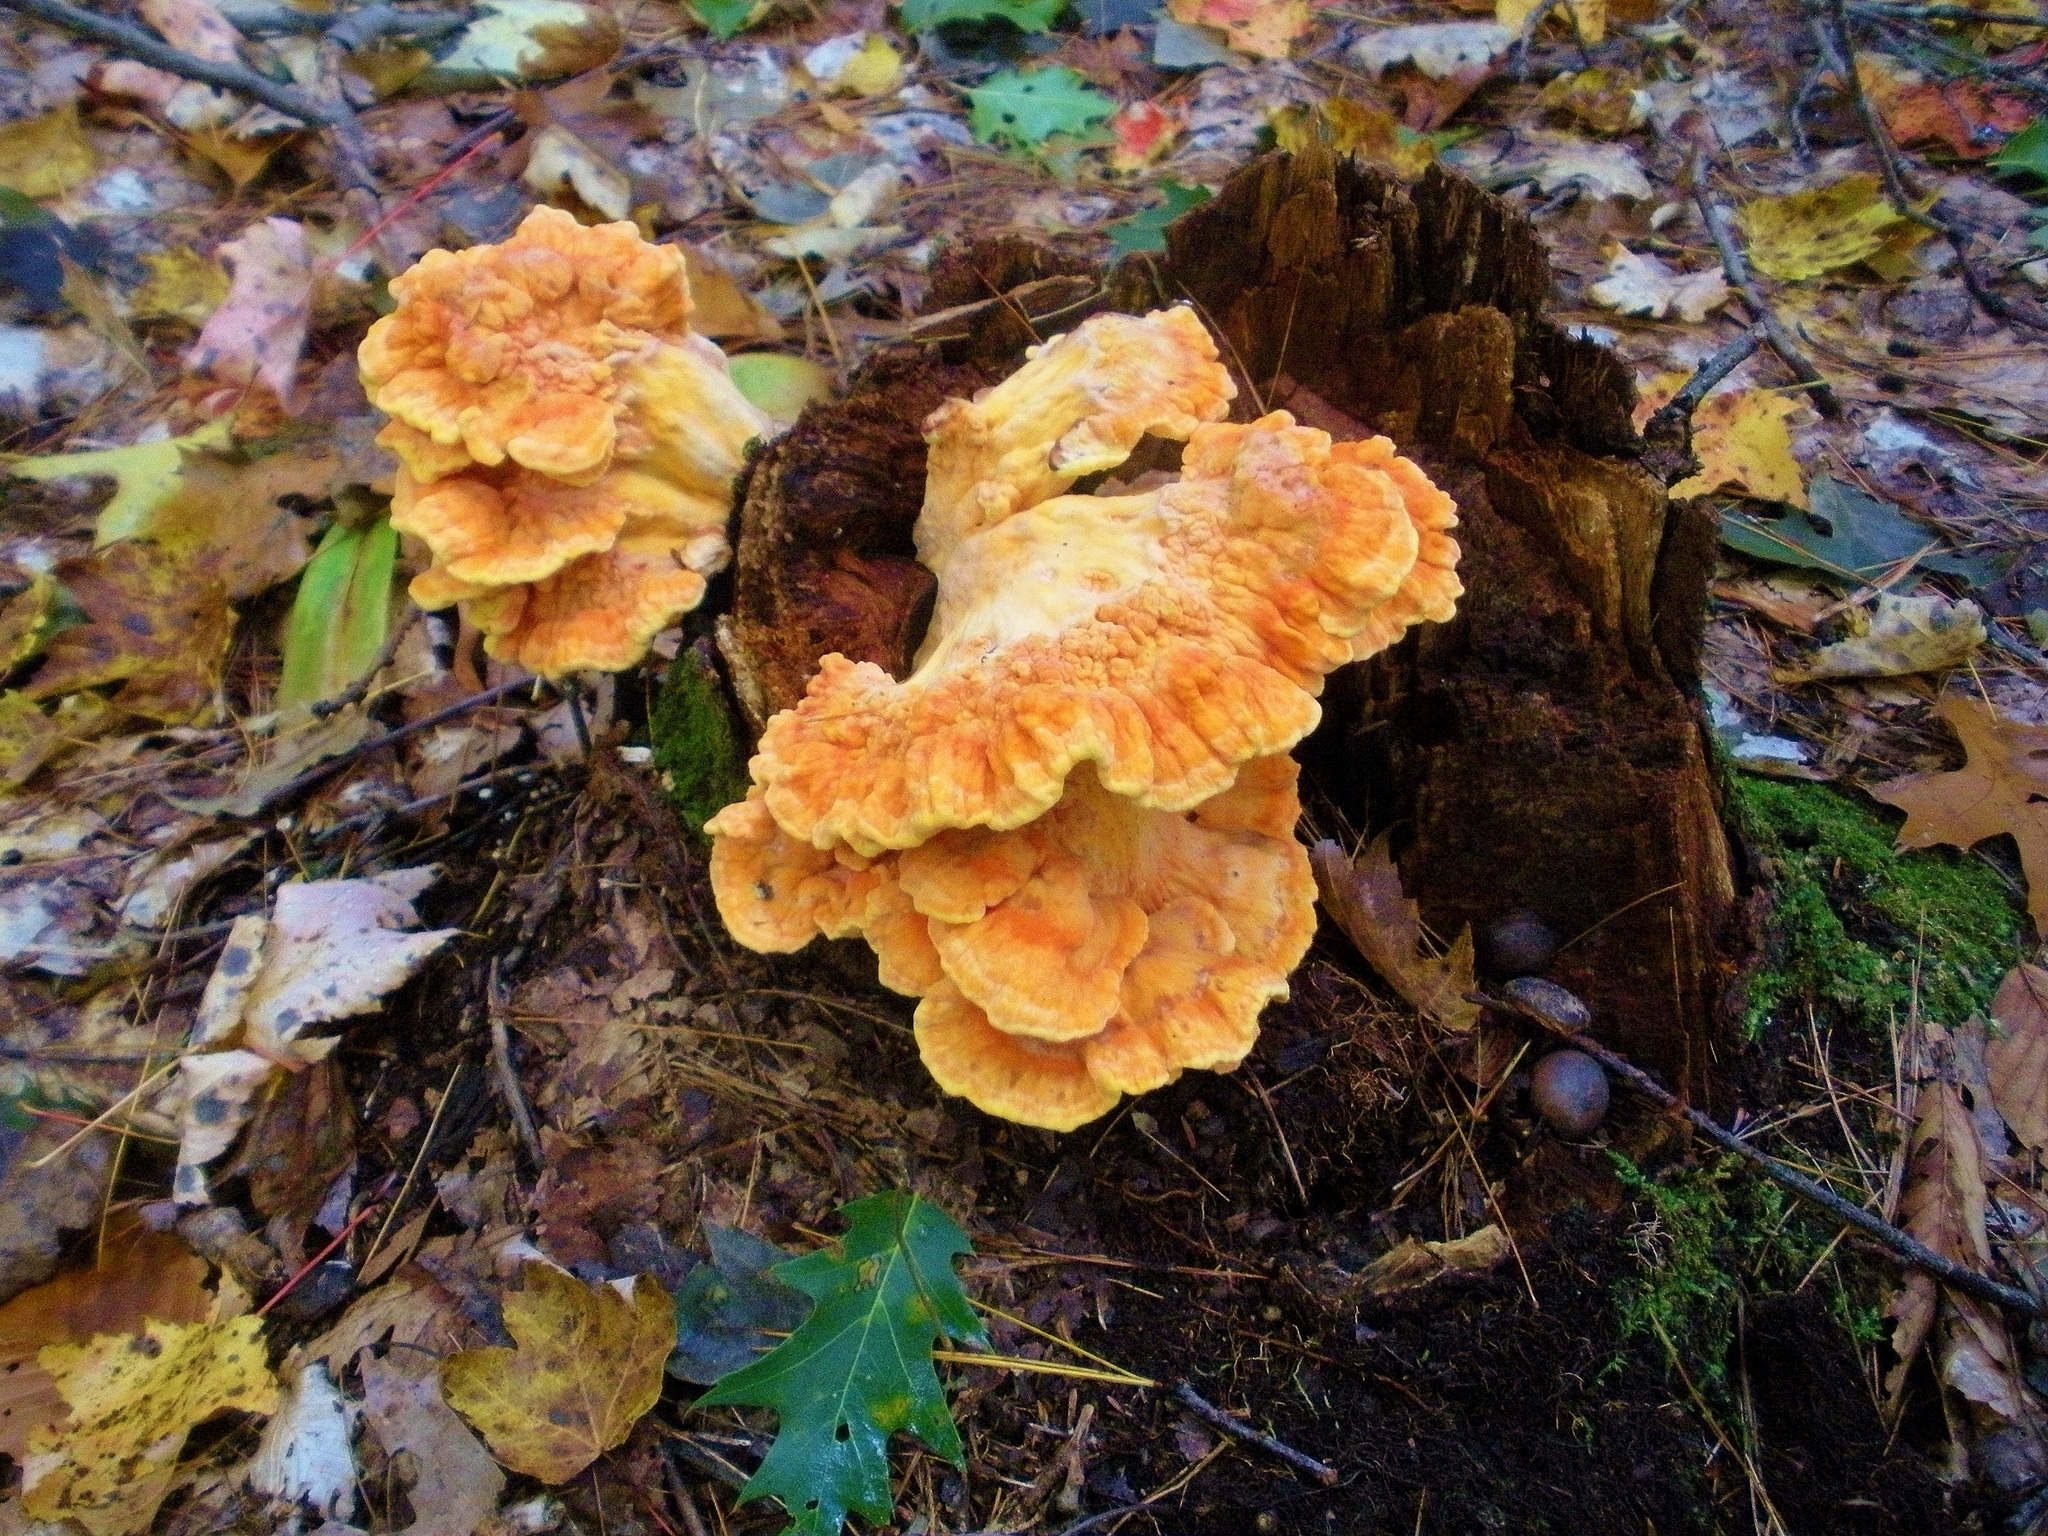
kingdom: Fungi
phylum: Basidiomycota
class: Agaricomycetes
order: Polyporales
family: Laetiporaceae
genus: Laetiporus
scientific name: Laetiporus sulphureus
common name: Chicken of the woods
